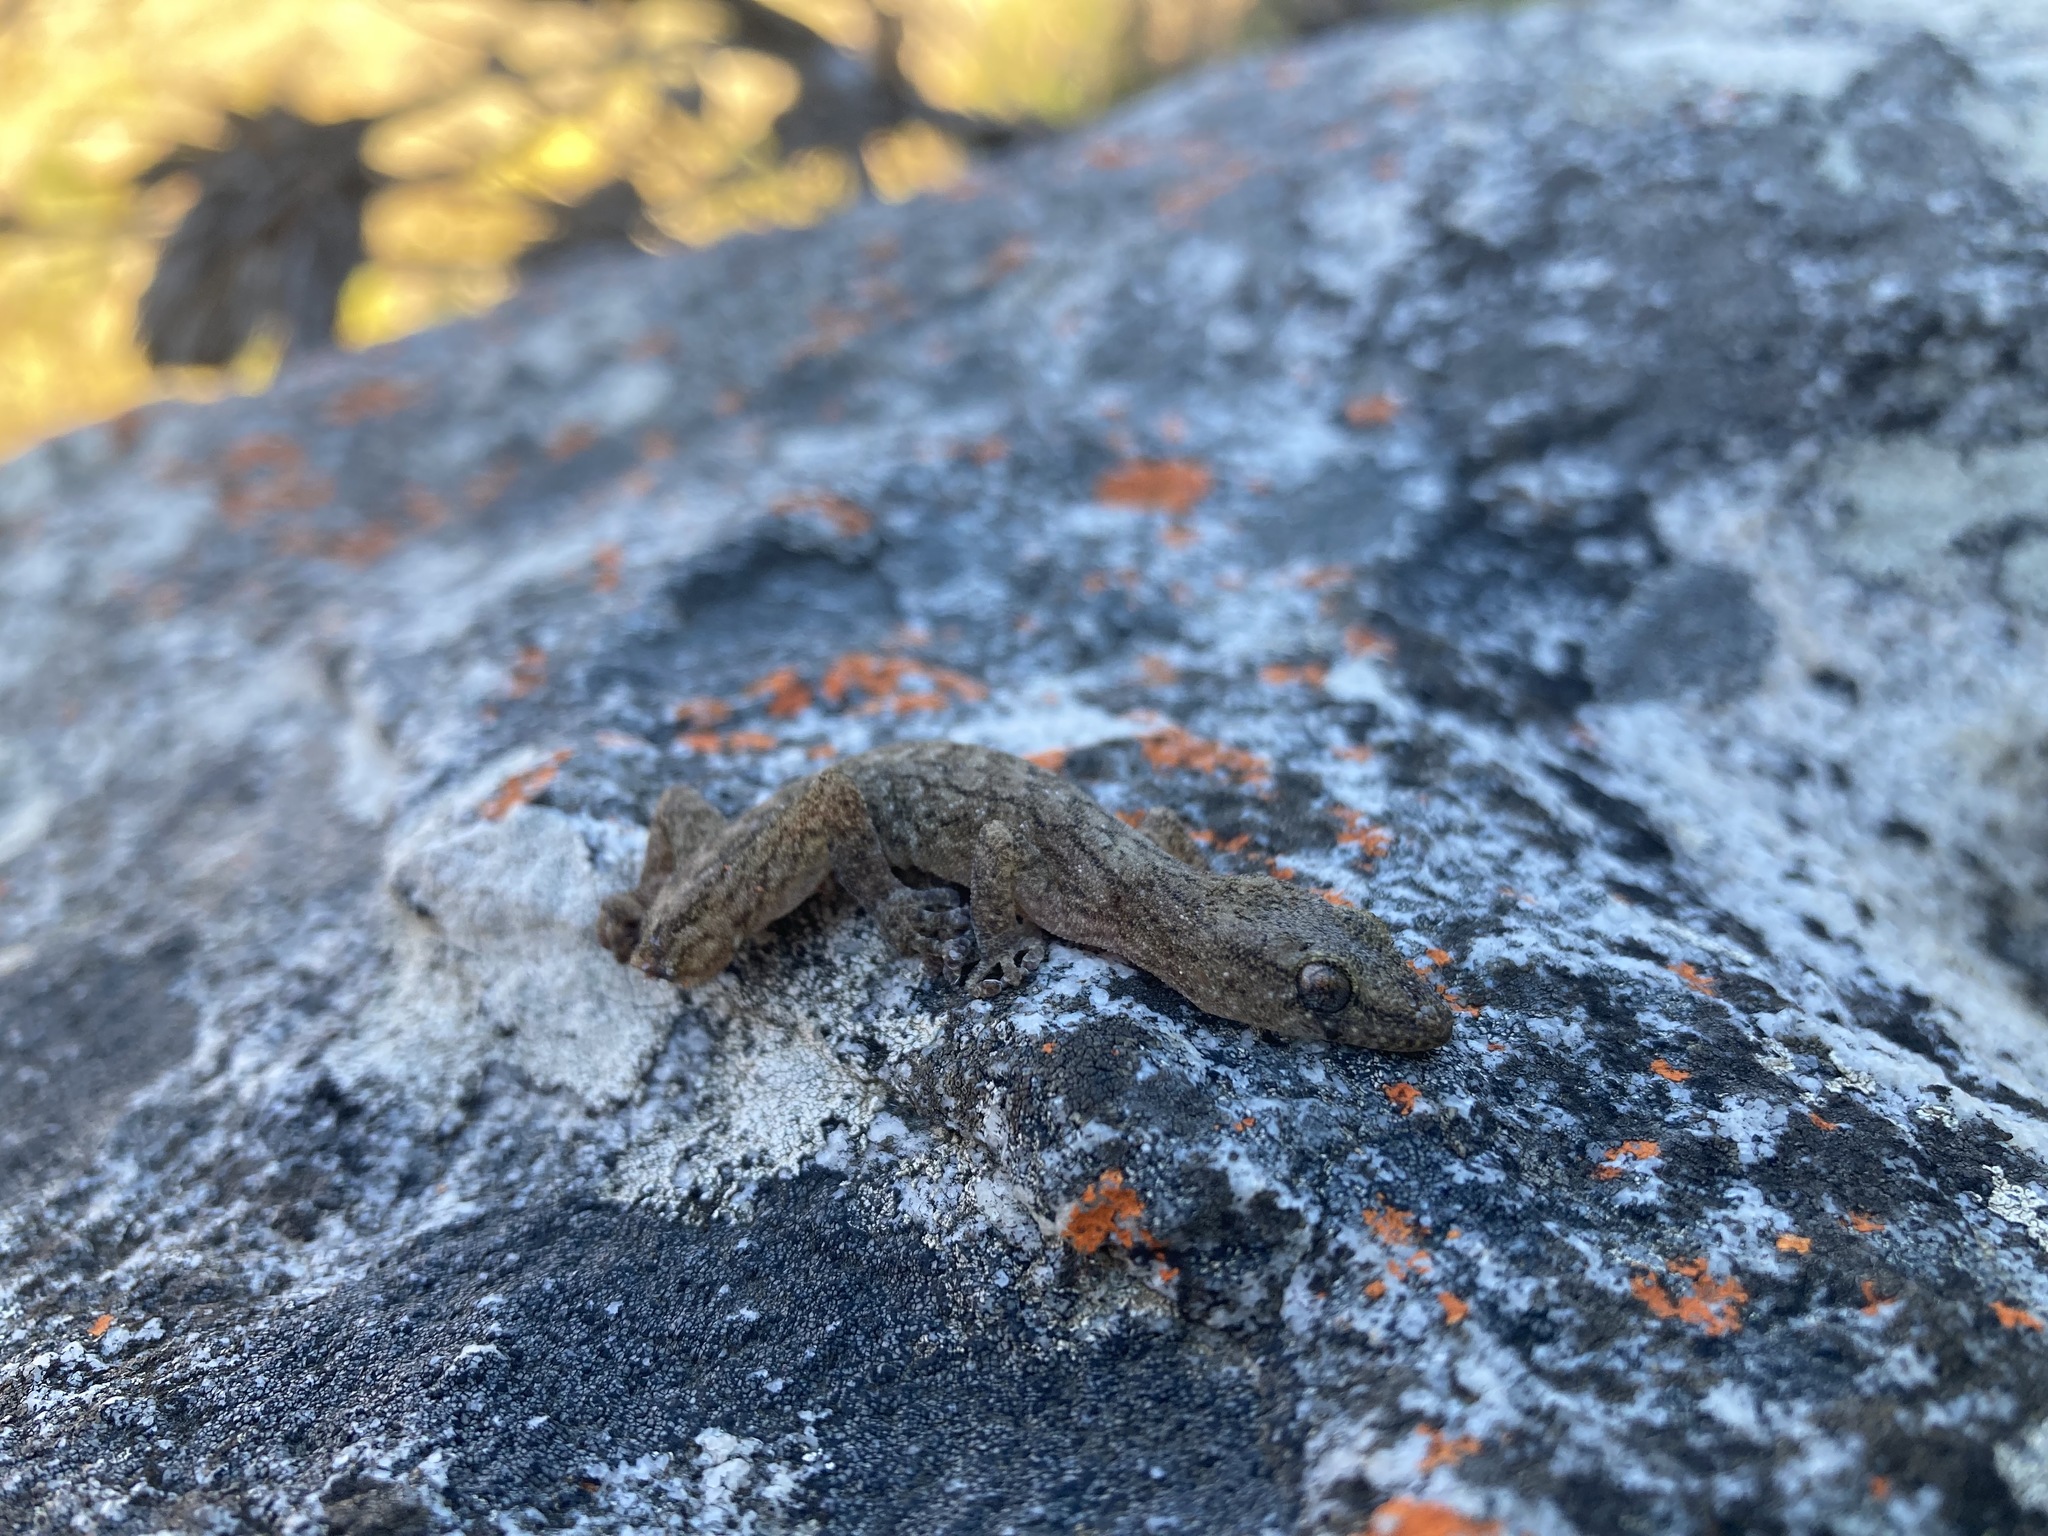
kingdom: Animalia
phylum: Chordata
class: Squamata
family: Gekkonidae
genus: Afrogecko
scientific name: Afrogecko porphyreus
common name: Marbled leaf-toed gecko
